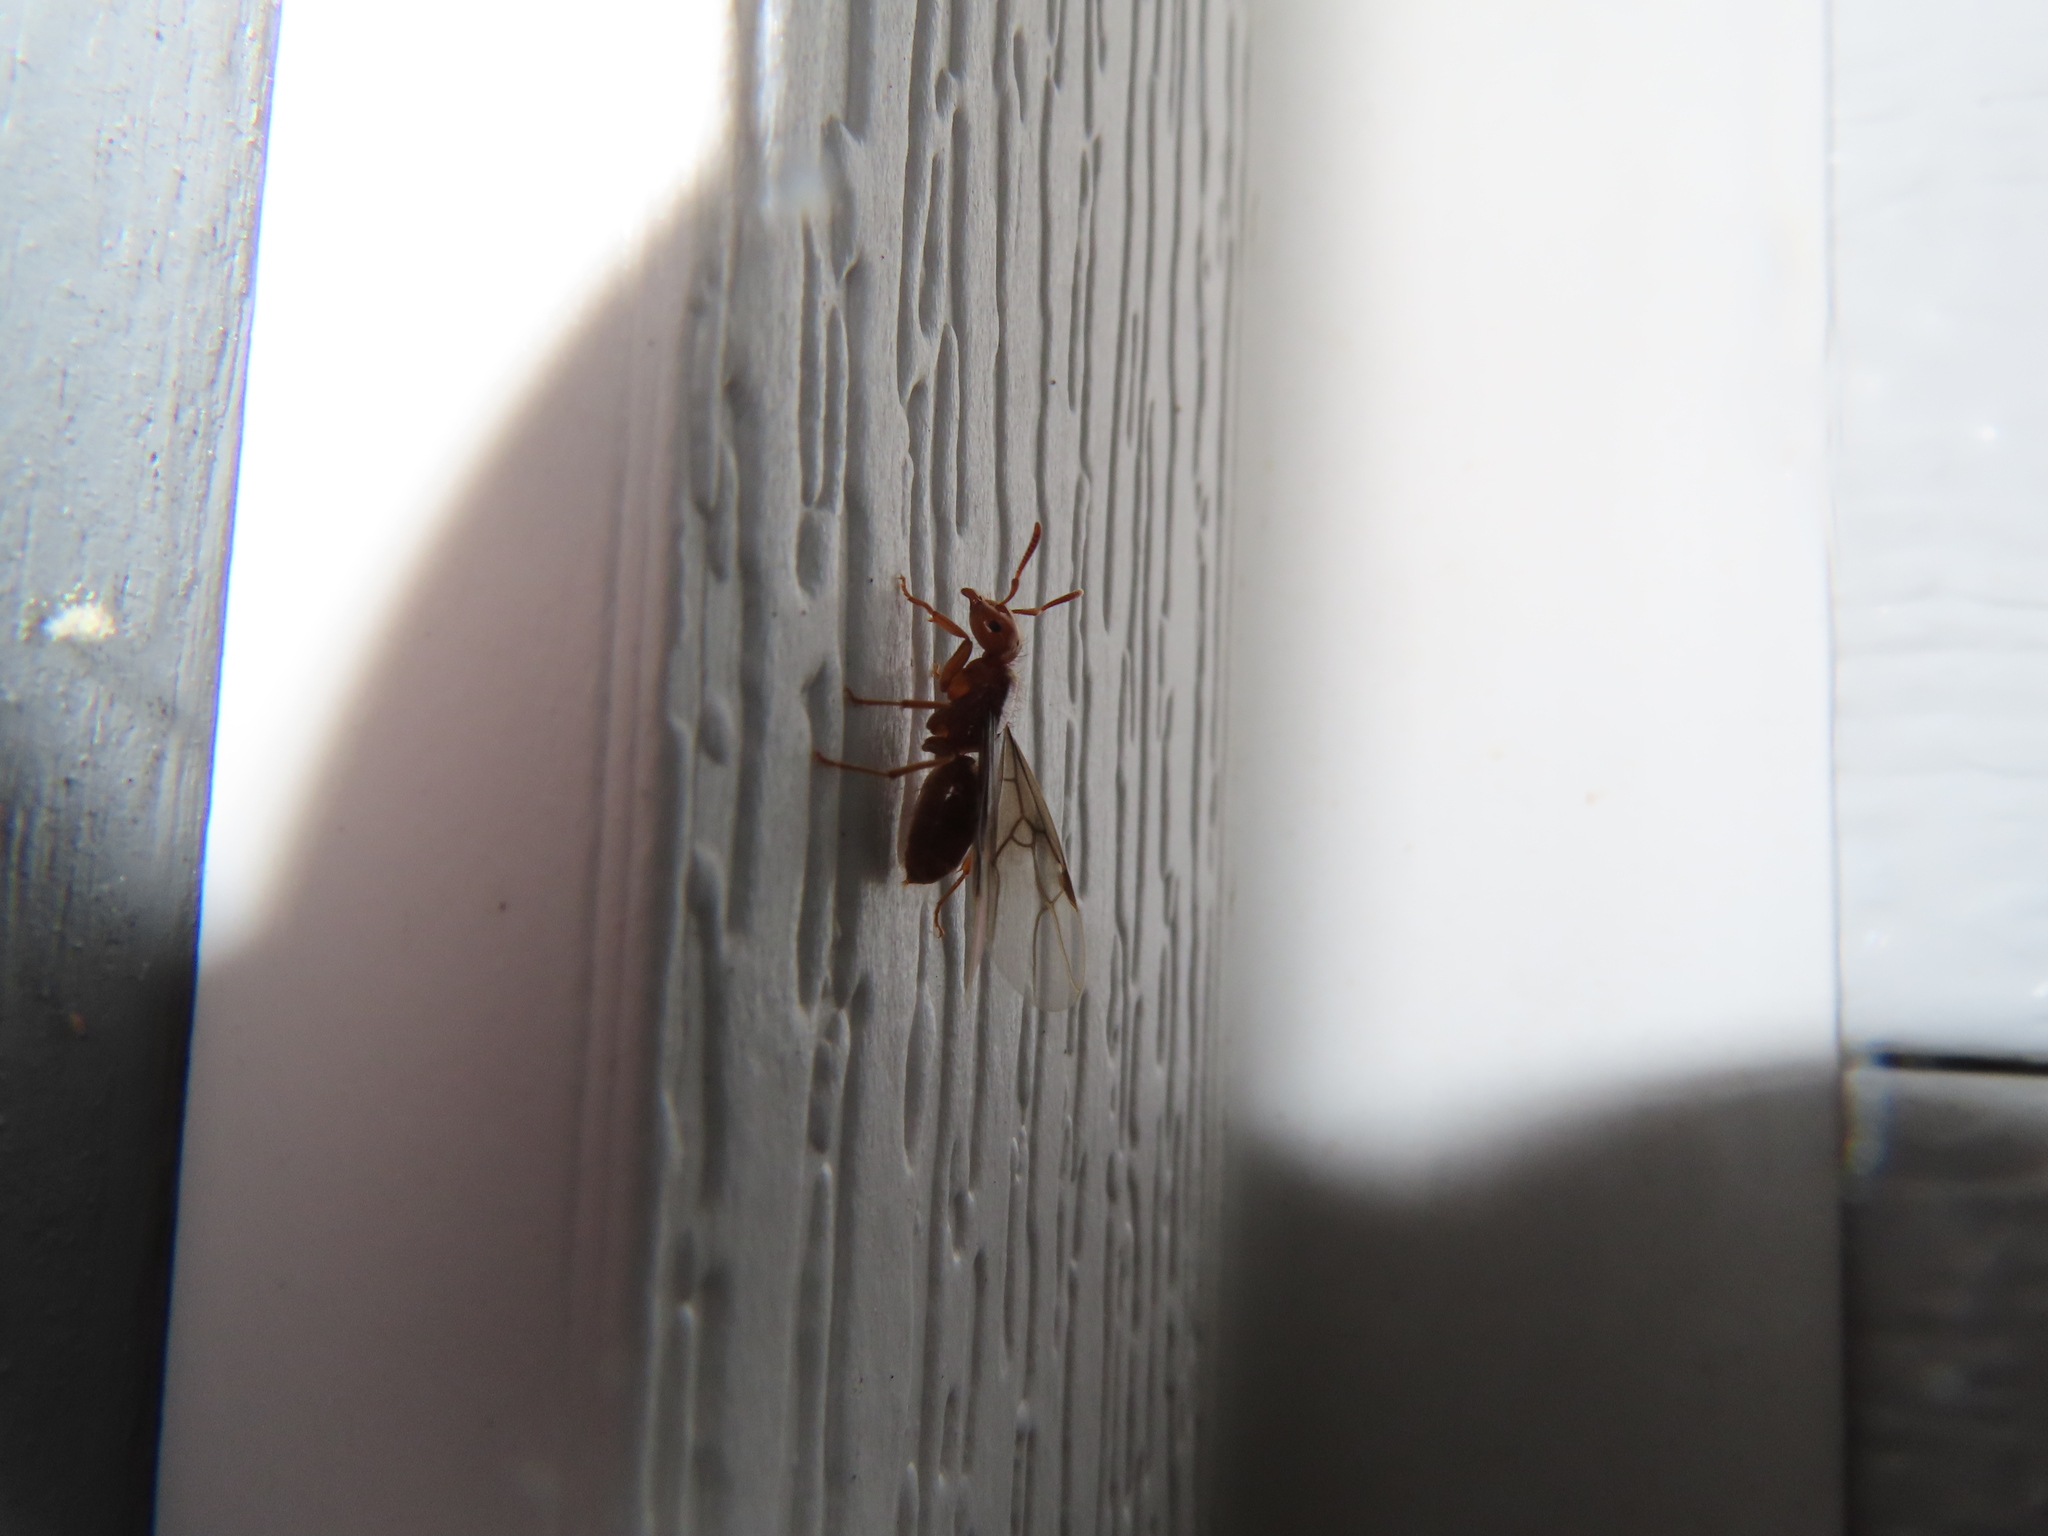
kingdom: Animalia
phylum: Arthropoda
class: Insecta
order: Hymenoptera
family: Formicidae
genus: Acanthomyops
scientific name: Acanthomyops interjectus
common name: Larger yellow ant
